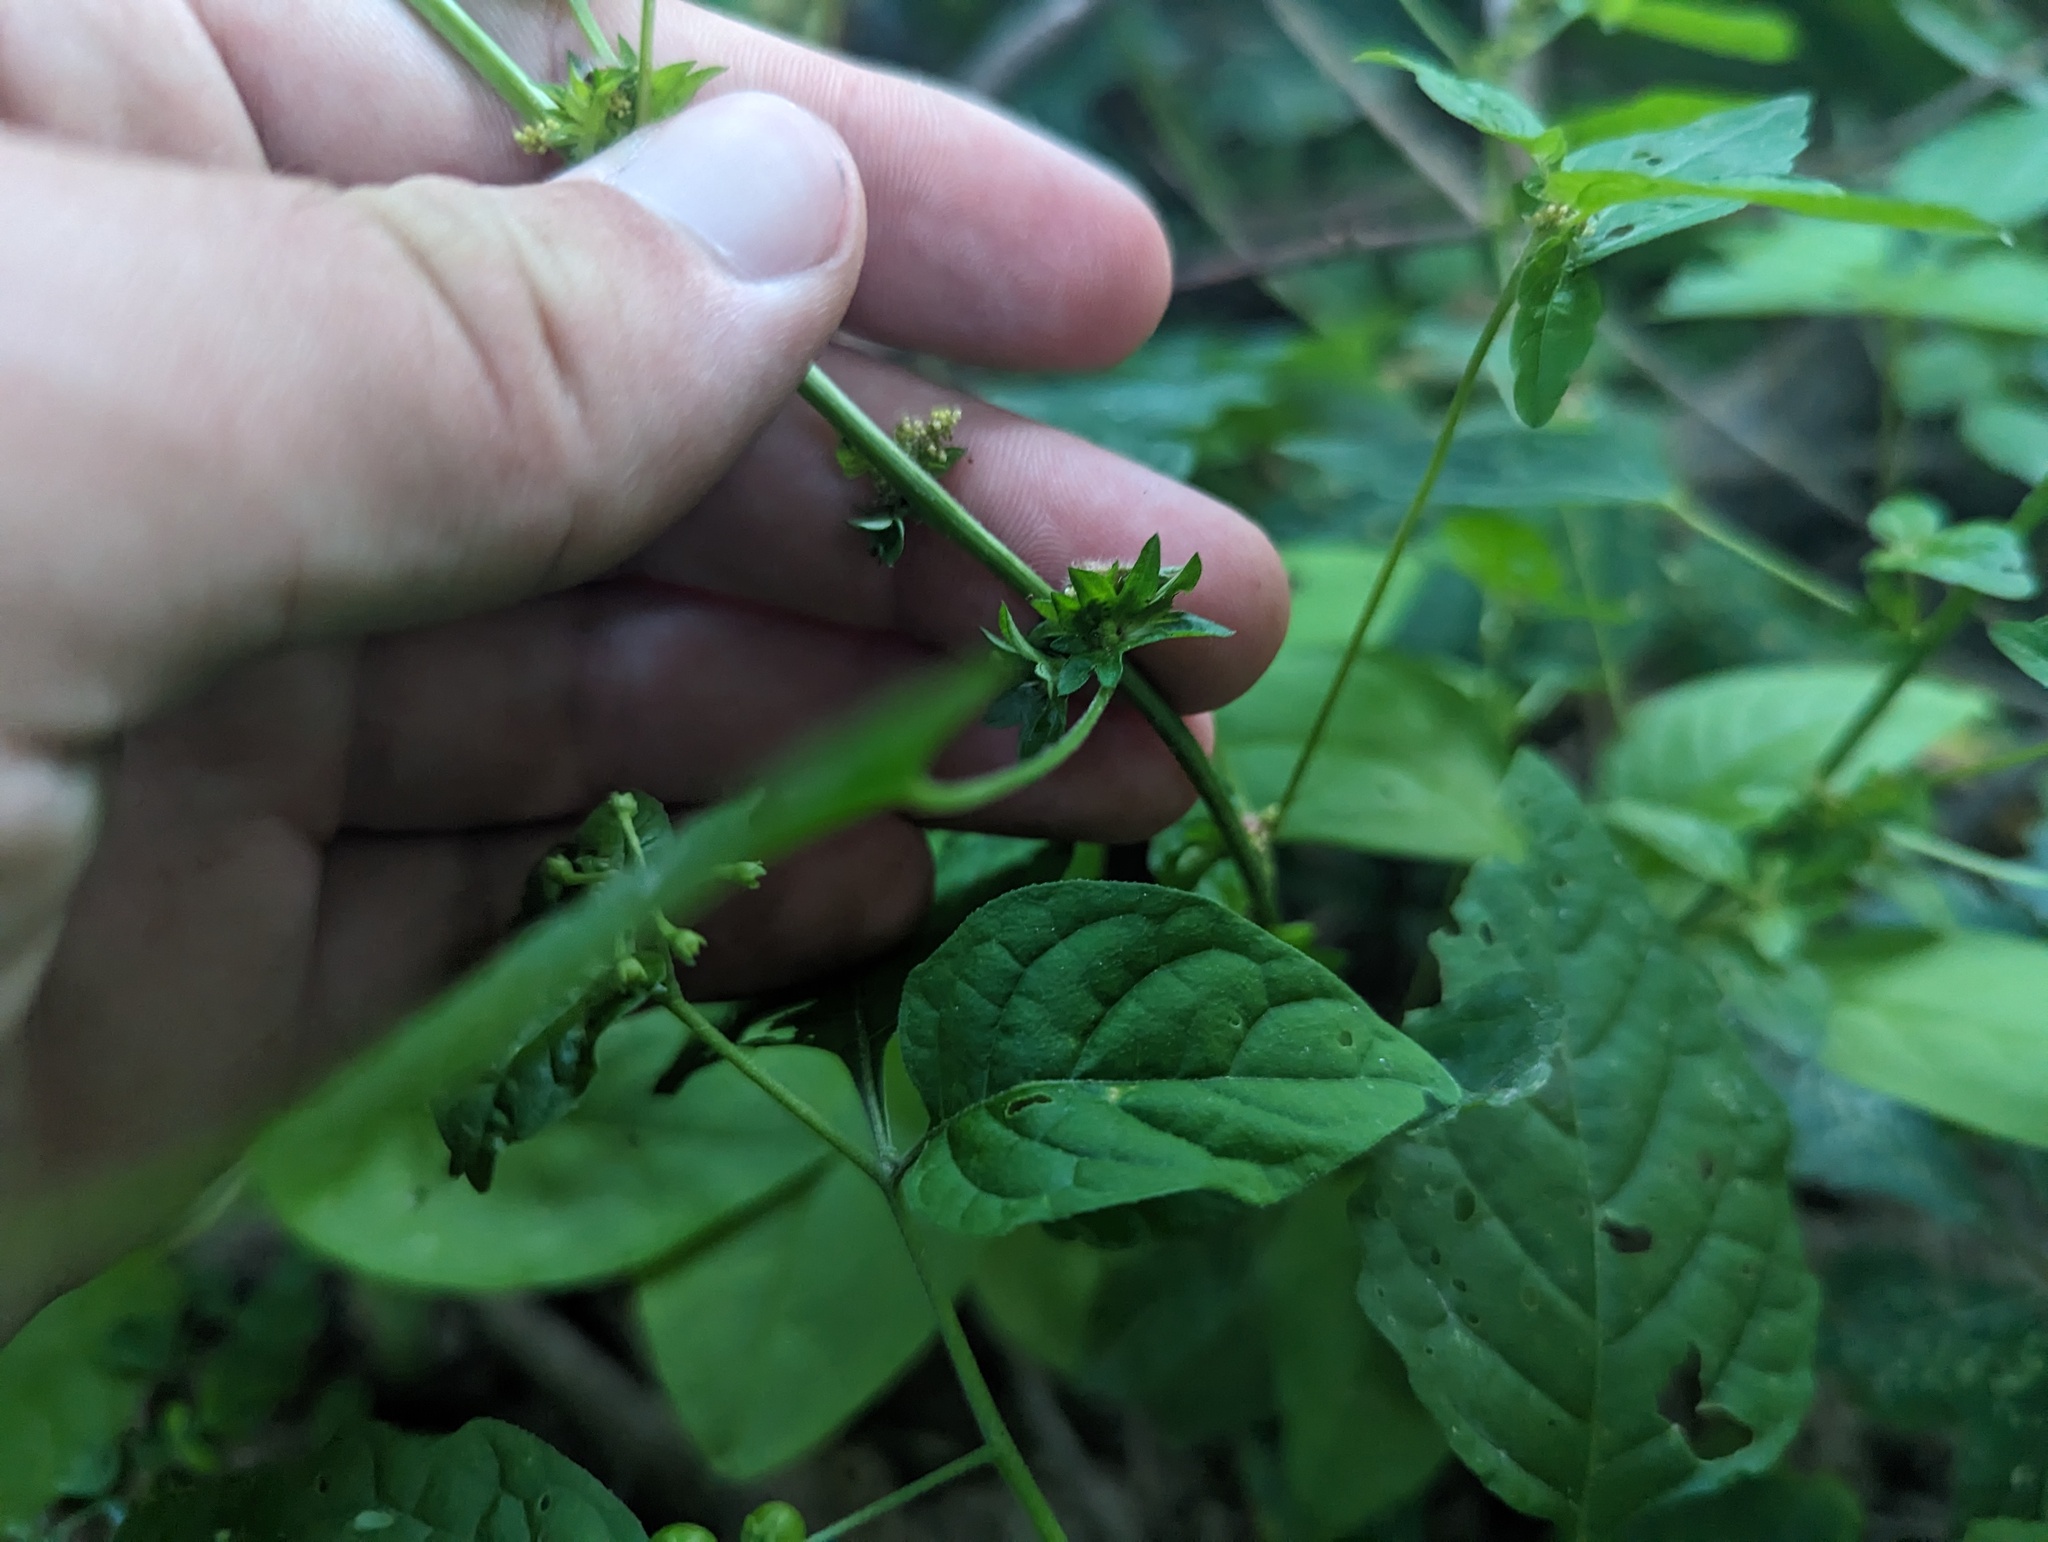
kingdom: Plantae
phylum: Tracheophyta
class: Magnoliopsida
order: Malpighiales
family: Euphorbiaceae
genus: Acalypha
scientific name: Acalypha rhomboidea
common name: Rhombic copperleaf
